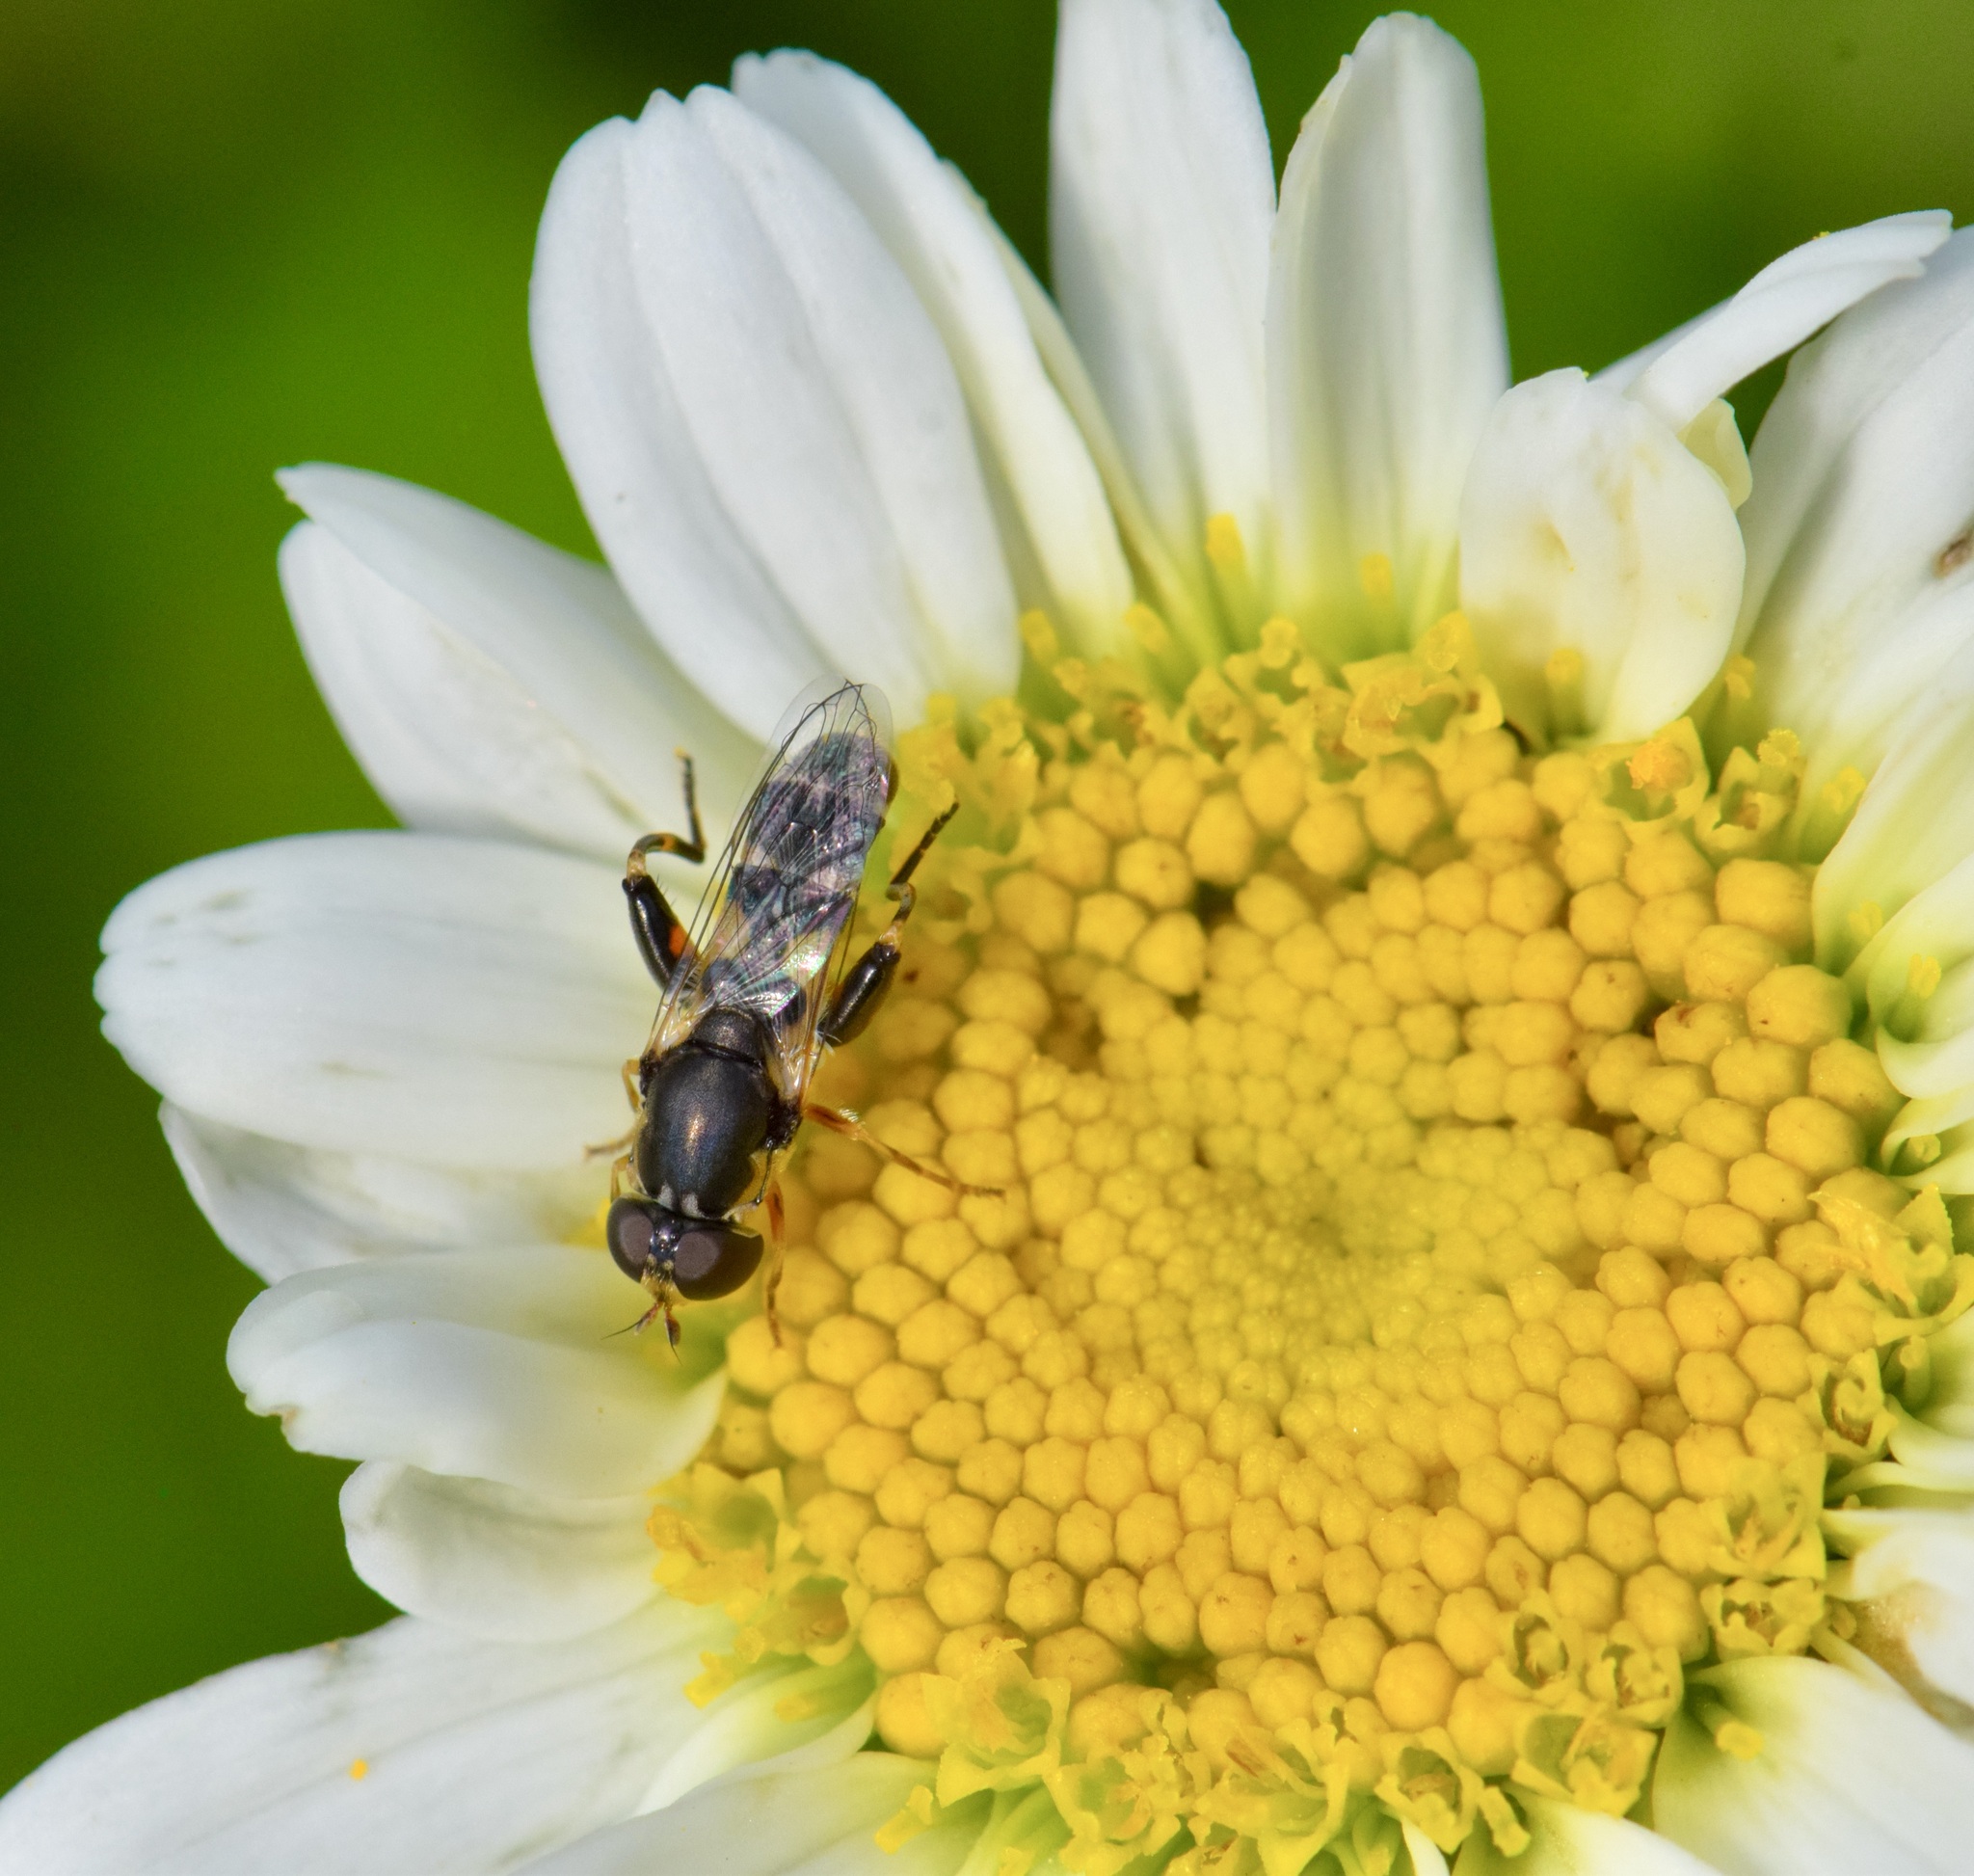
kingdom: Animalia
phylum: Arthropoda
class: Insecta
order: Diptera
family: Syrphidae
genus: Syritta
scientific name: Syritta pipiens
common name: Hover fly
